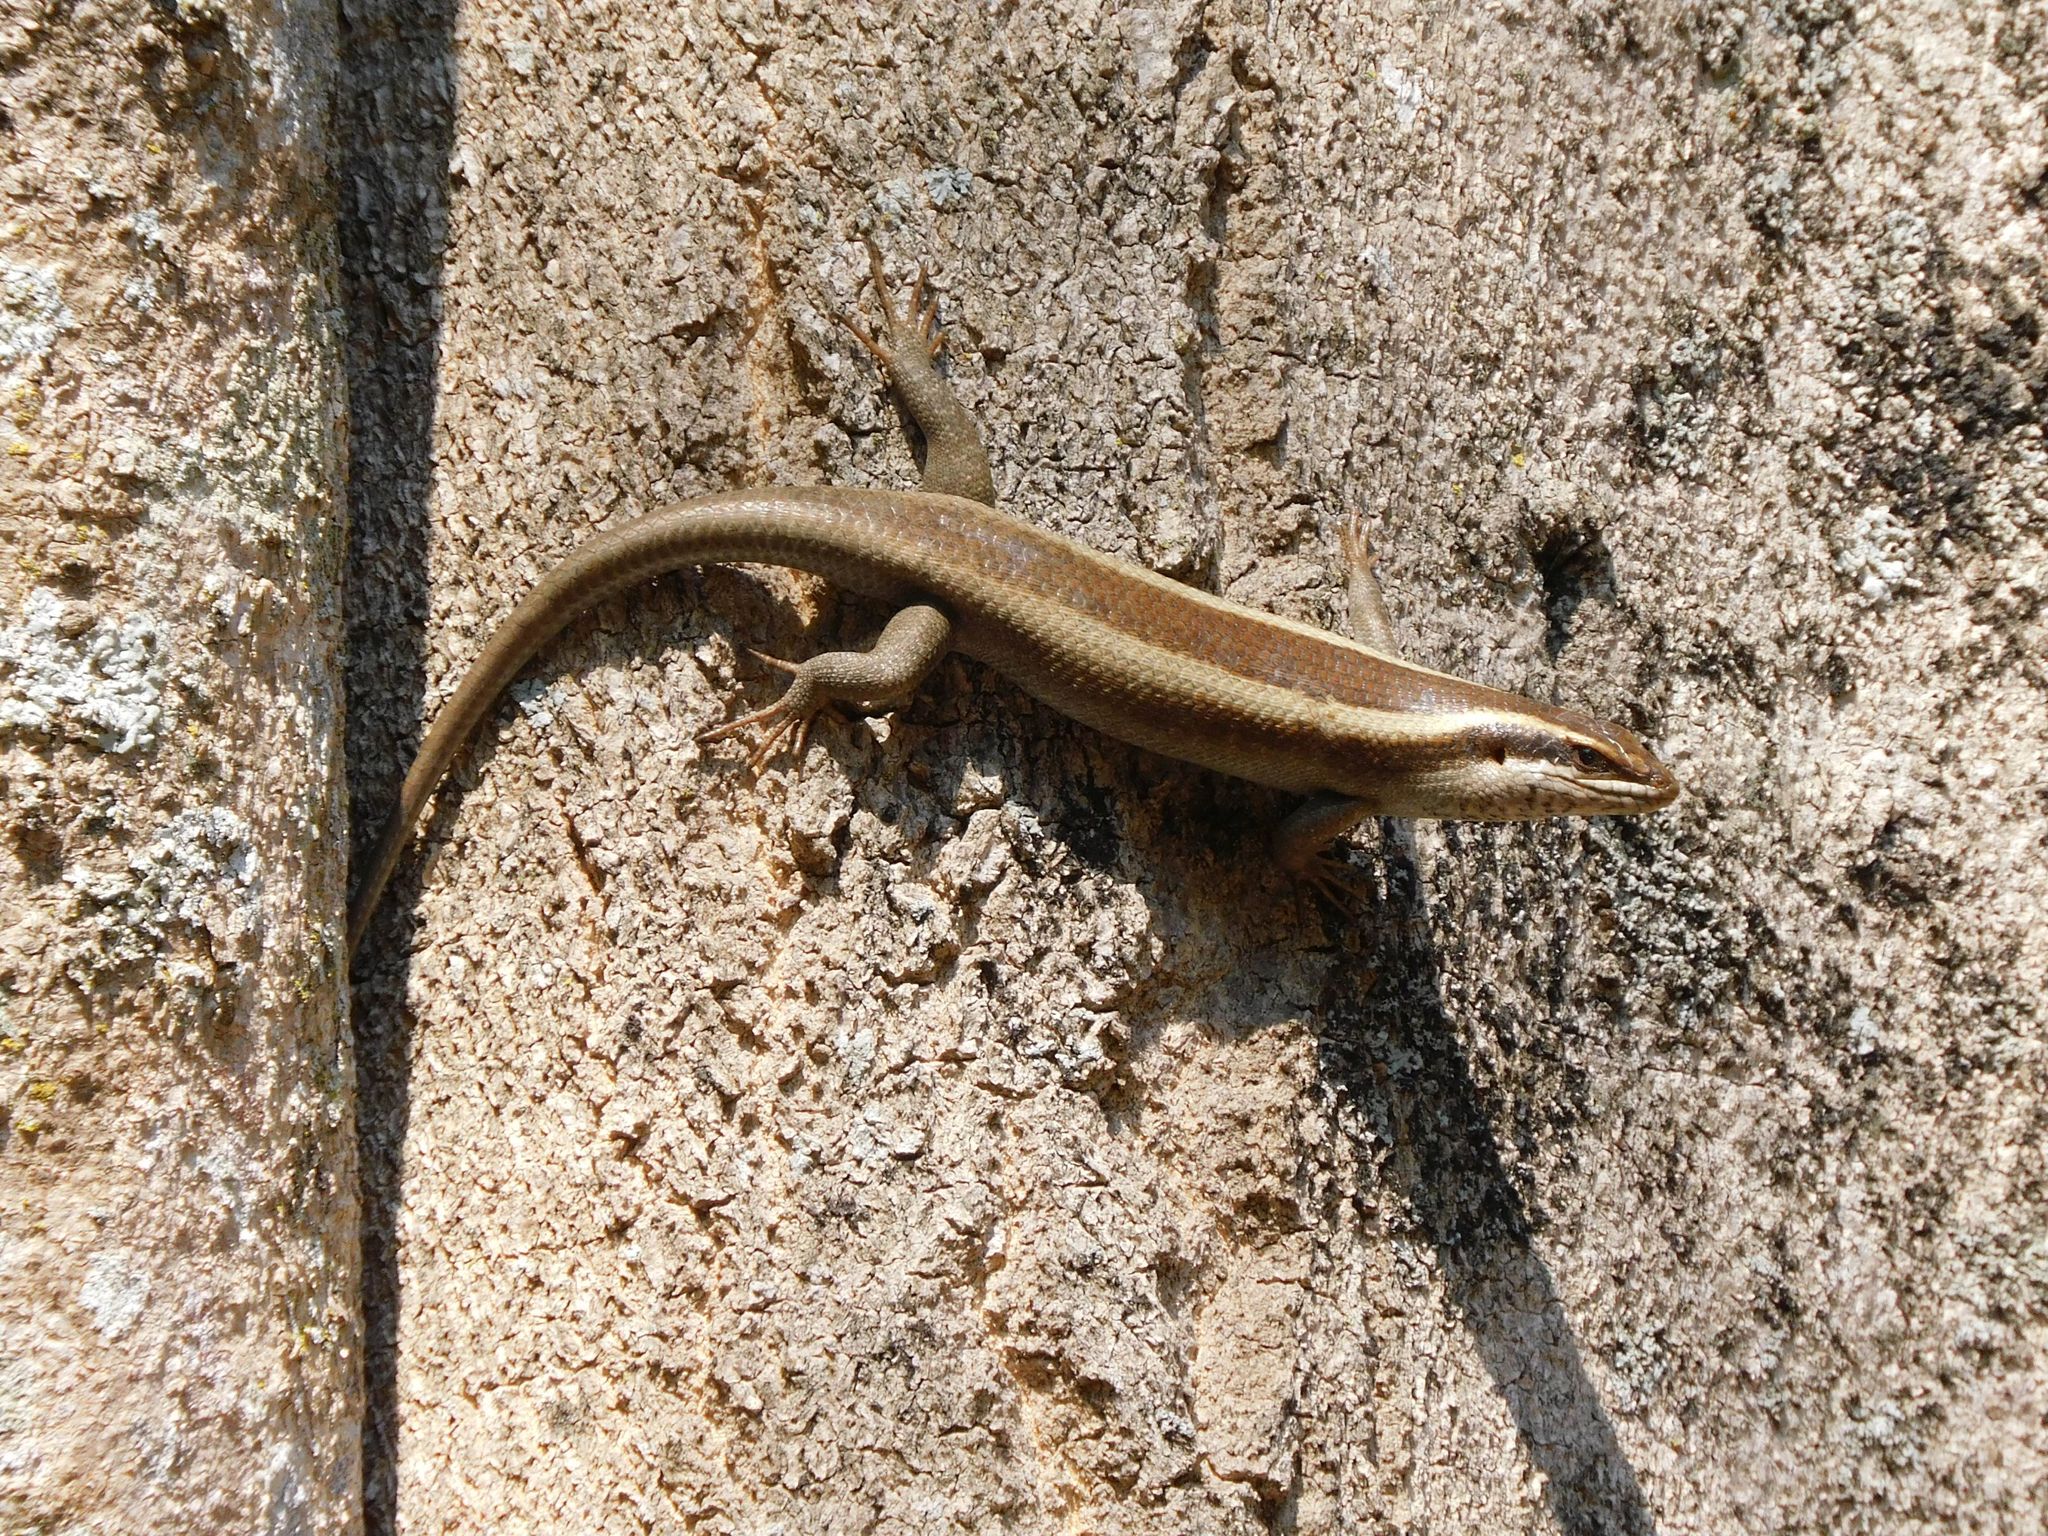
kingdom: Animalia
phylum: Chordata
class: Squamata
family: Scincidae
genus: Trachylepis
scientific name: Trachylepis striata
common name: African striped mabuya
